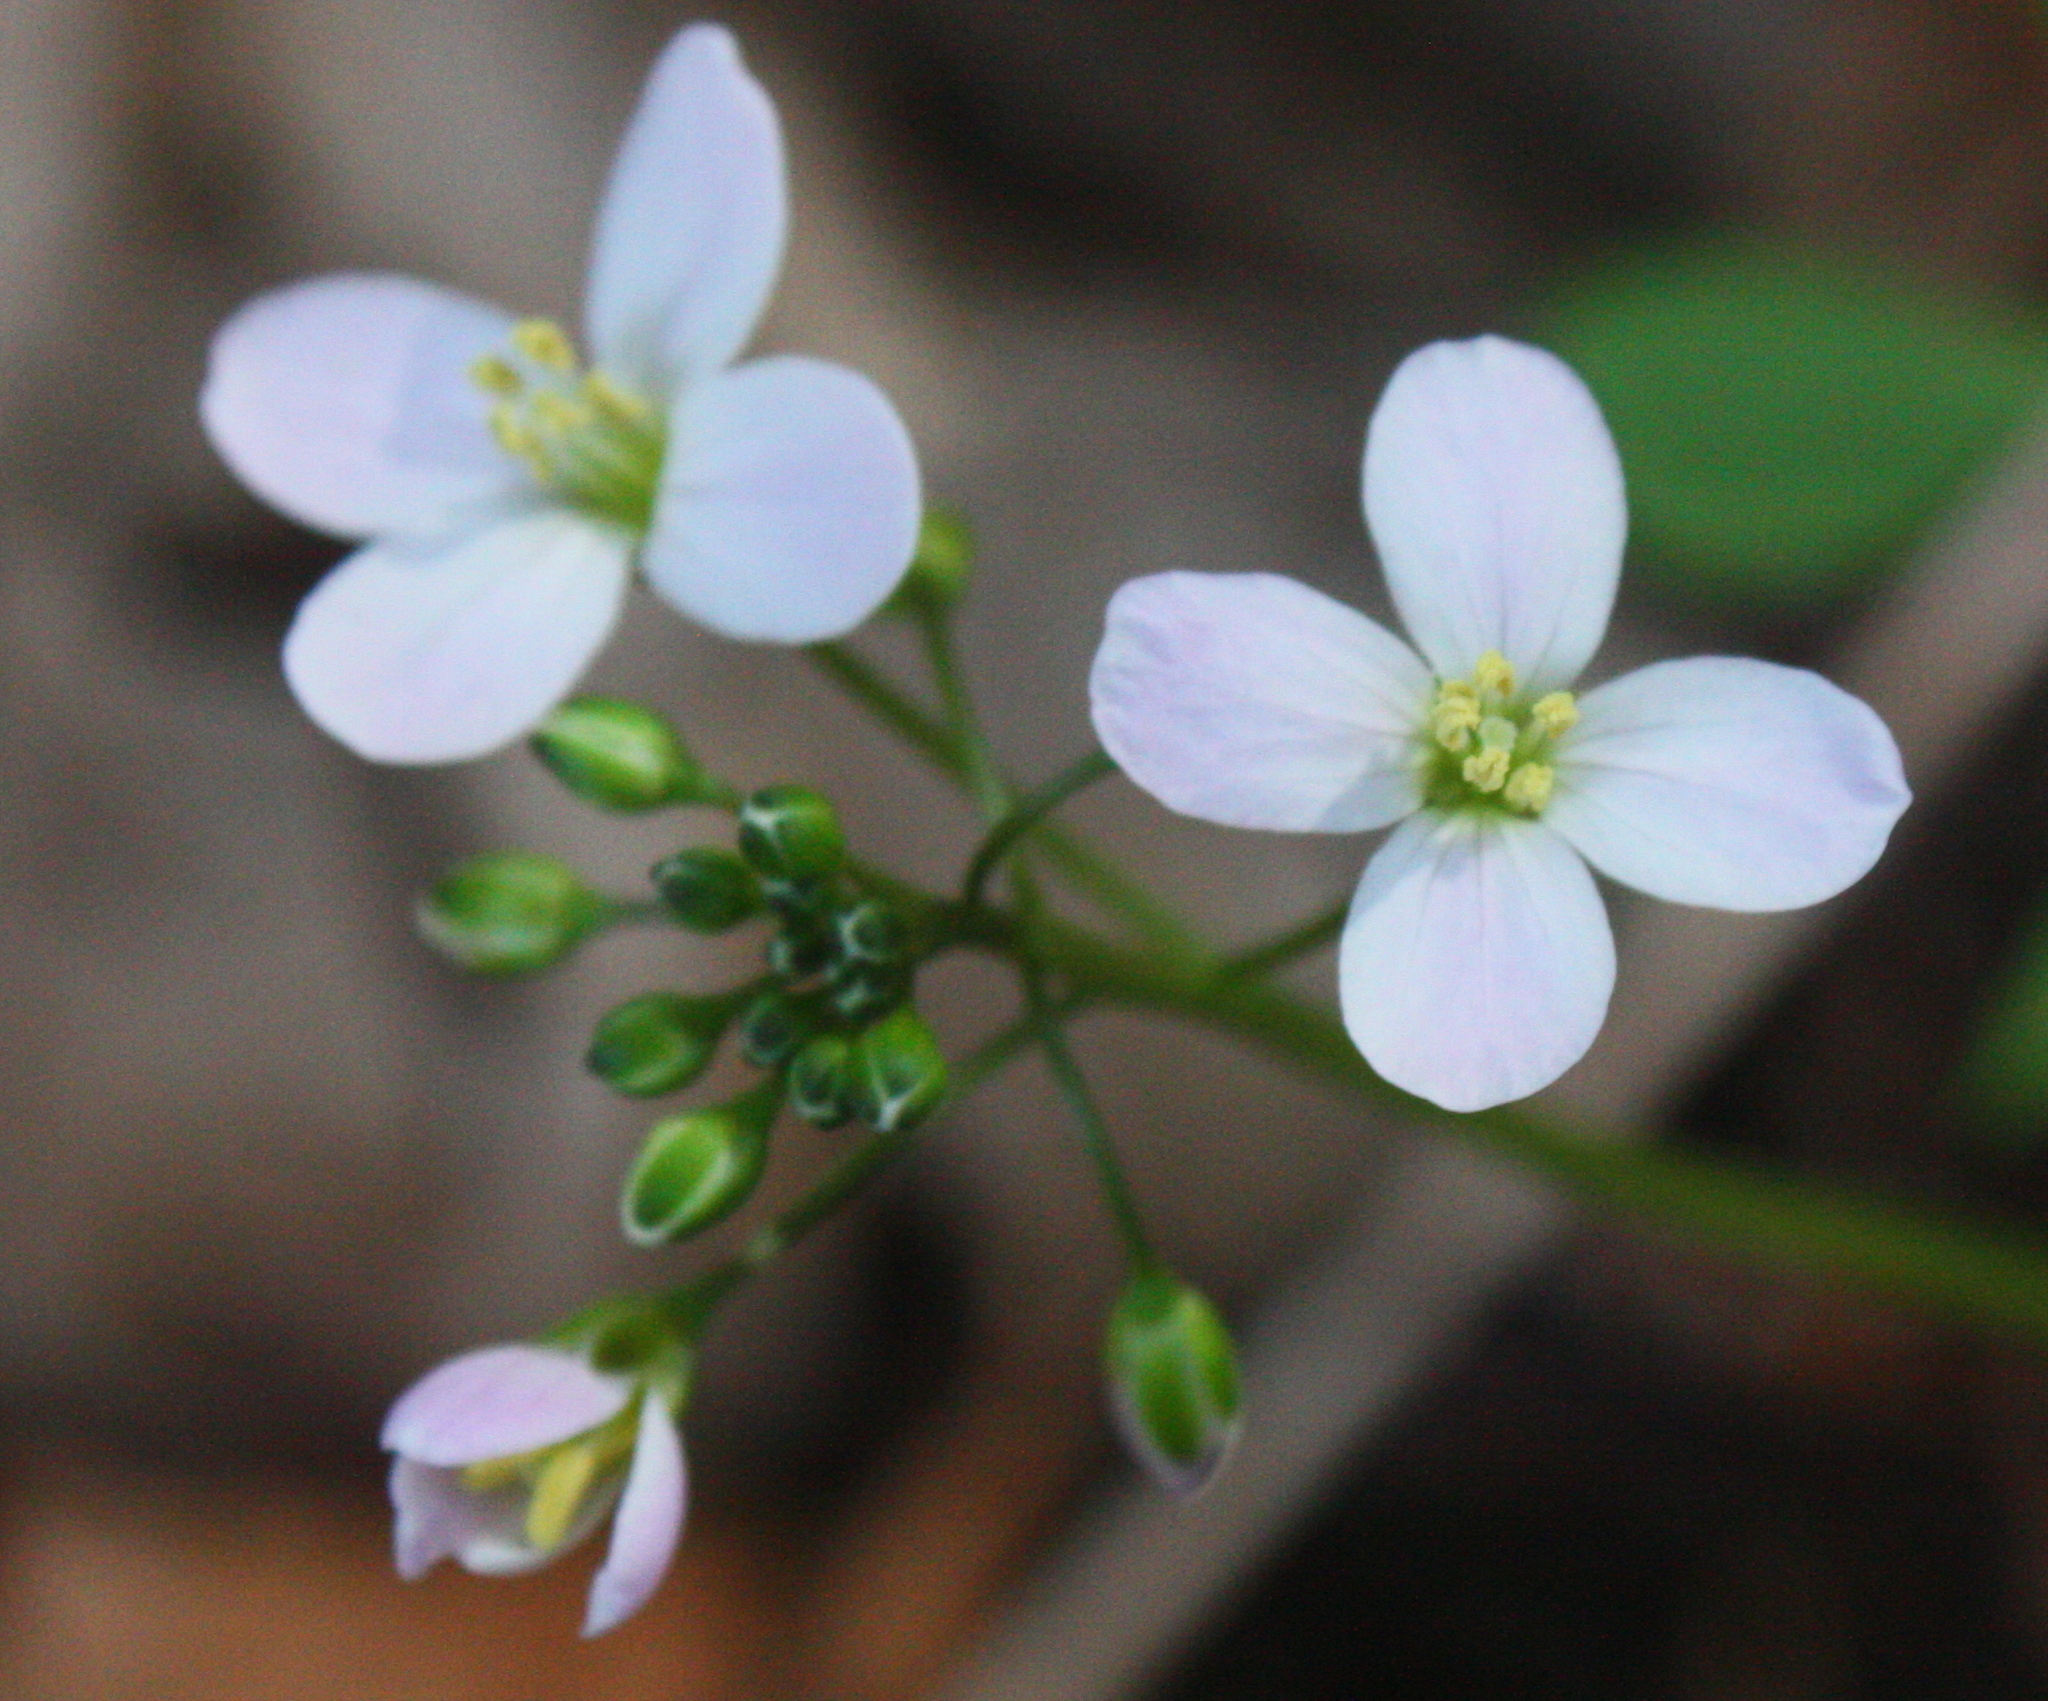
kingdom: Plantae
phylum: Tracheophyta
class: Magnoliopsida
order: Brassicales
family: Brassicaceae
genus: Cardamine
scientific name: Cardamine californica
